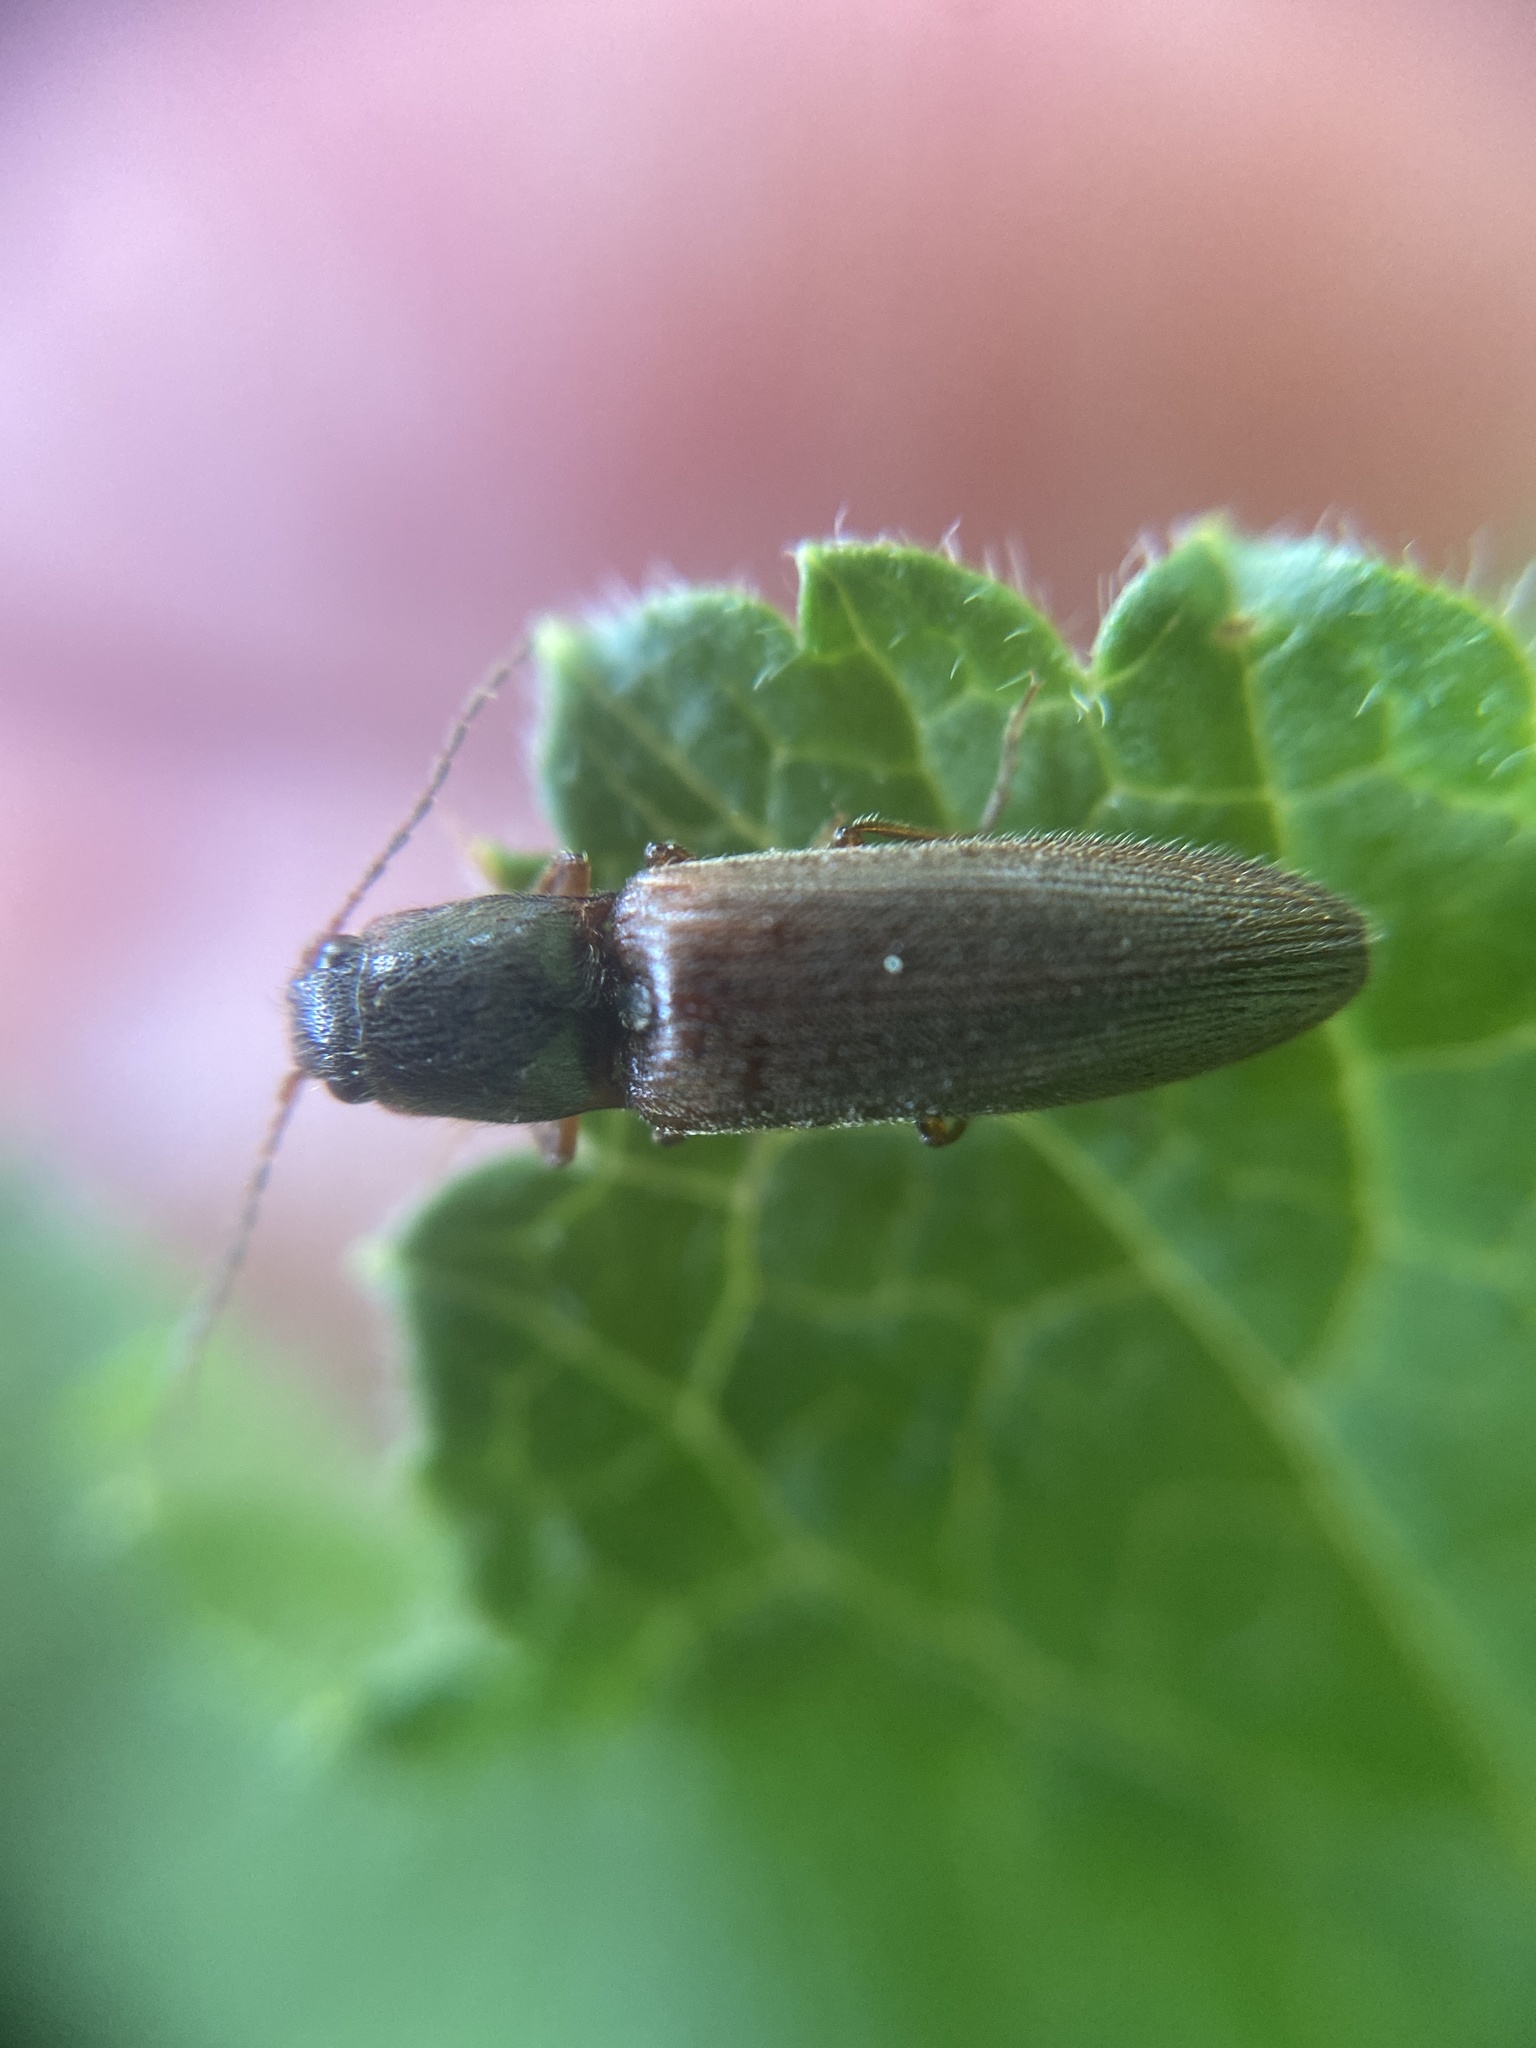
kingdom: Animalia
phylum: Arthropoda
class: Insecta
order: Coleoptera
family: Elateridae
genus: Athous
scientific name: Athous subfuscus
